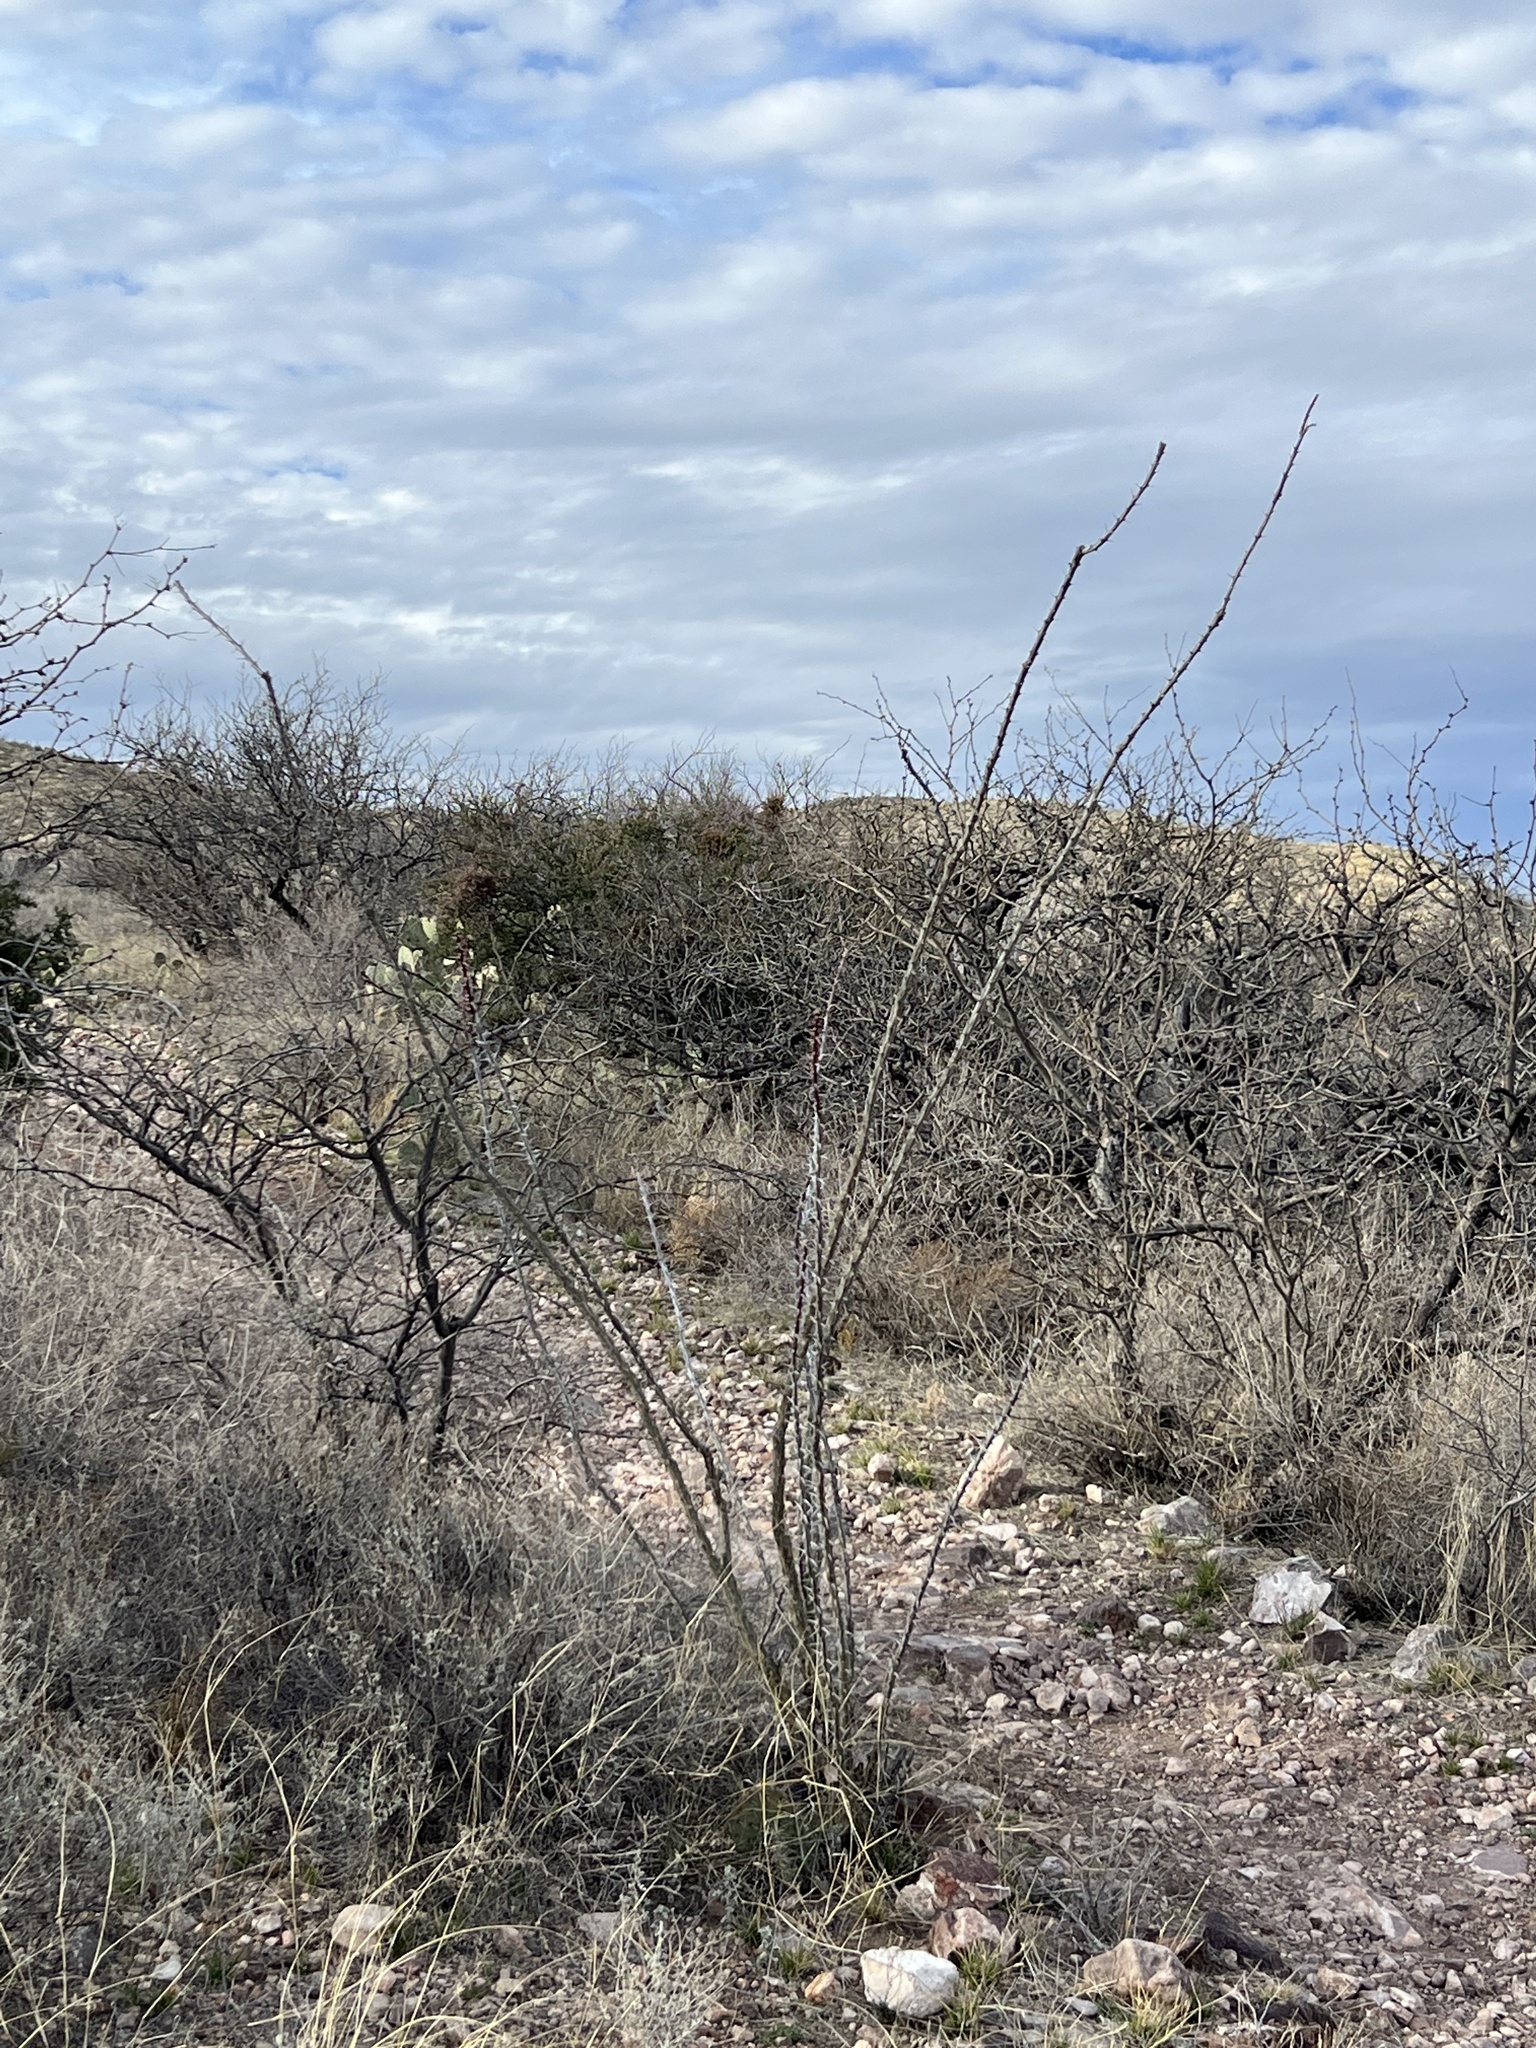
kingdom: Plantae
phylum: Tracheophyta
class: Magnoliopsida
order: Ericales
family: Fouquieriaceae
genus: Fouquieria
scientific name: Fouquieria splendens
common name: Vine-cactus
